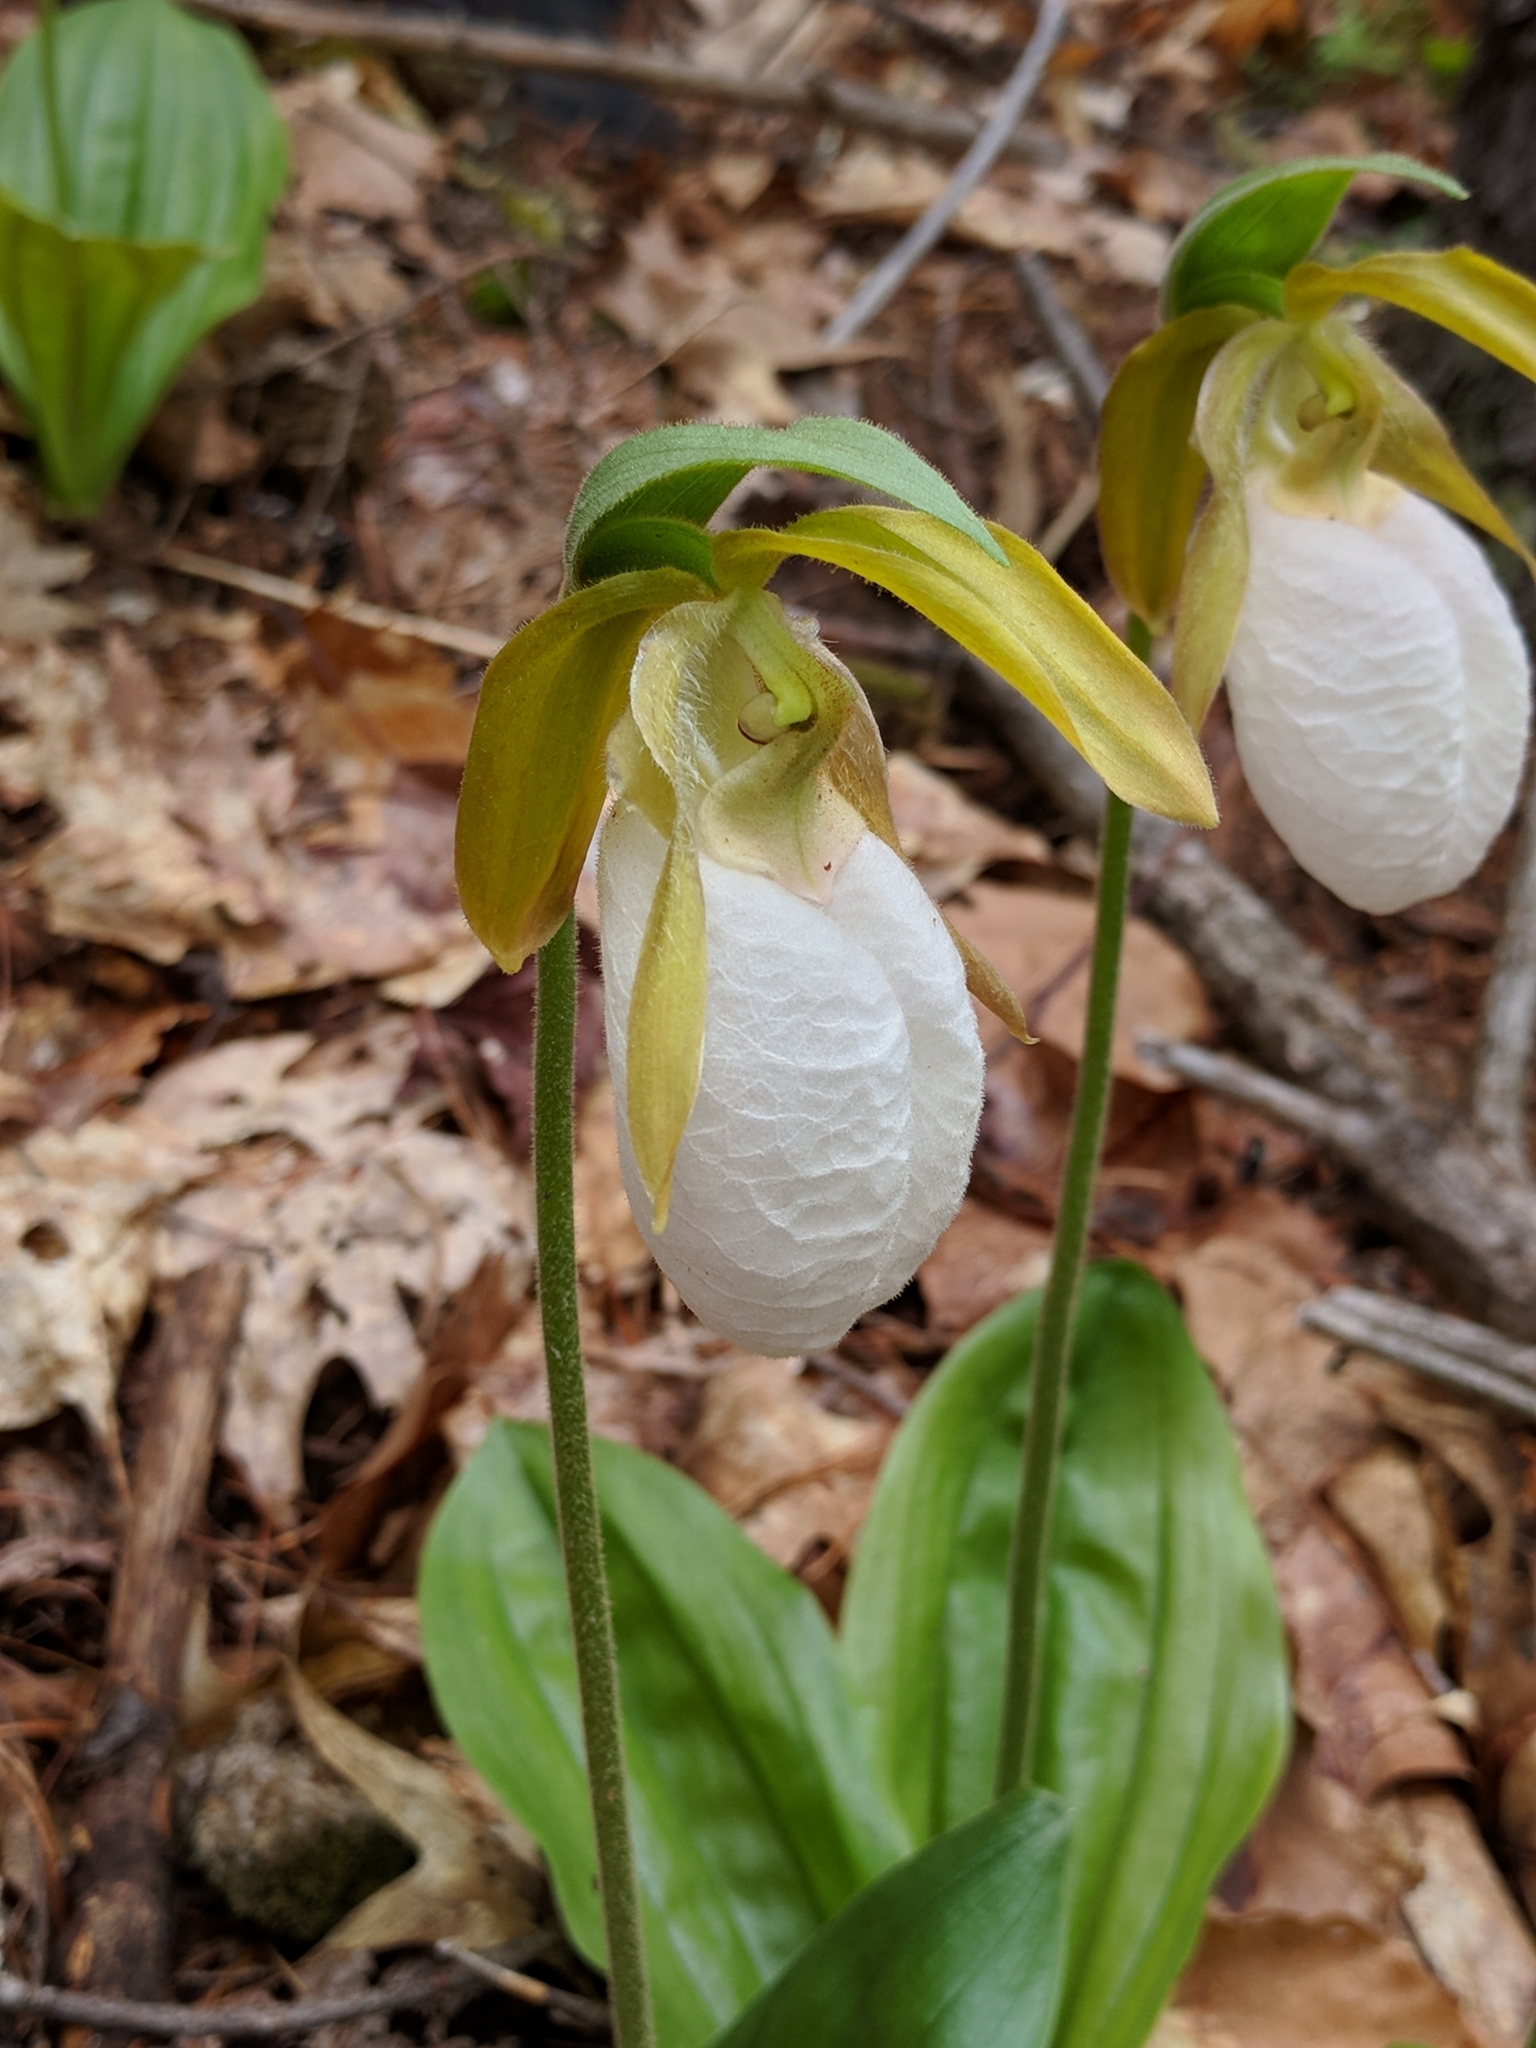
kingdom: Plantae
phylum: Tracheophyta
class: Liliopsida
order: Asparagales
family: Orchidaceae
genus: Cypripedium
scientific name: Cypripedium acaule
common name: Pink lady's-slipper
